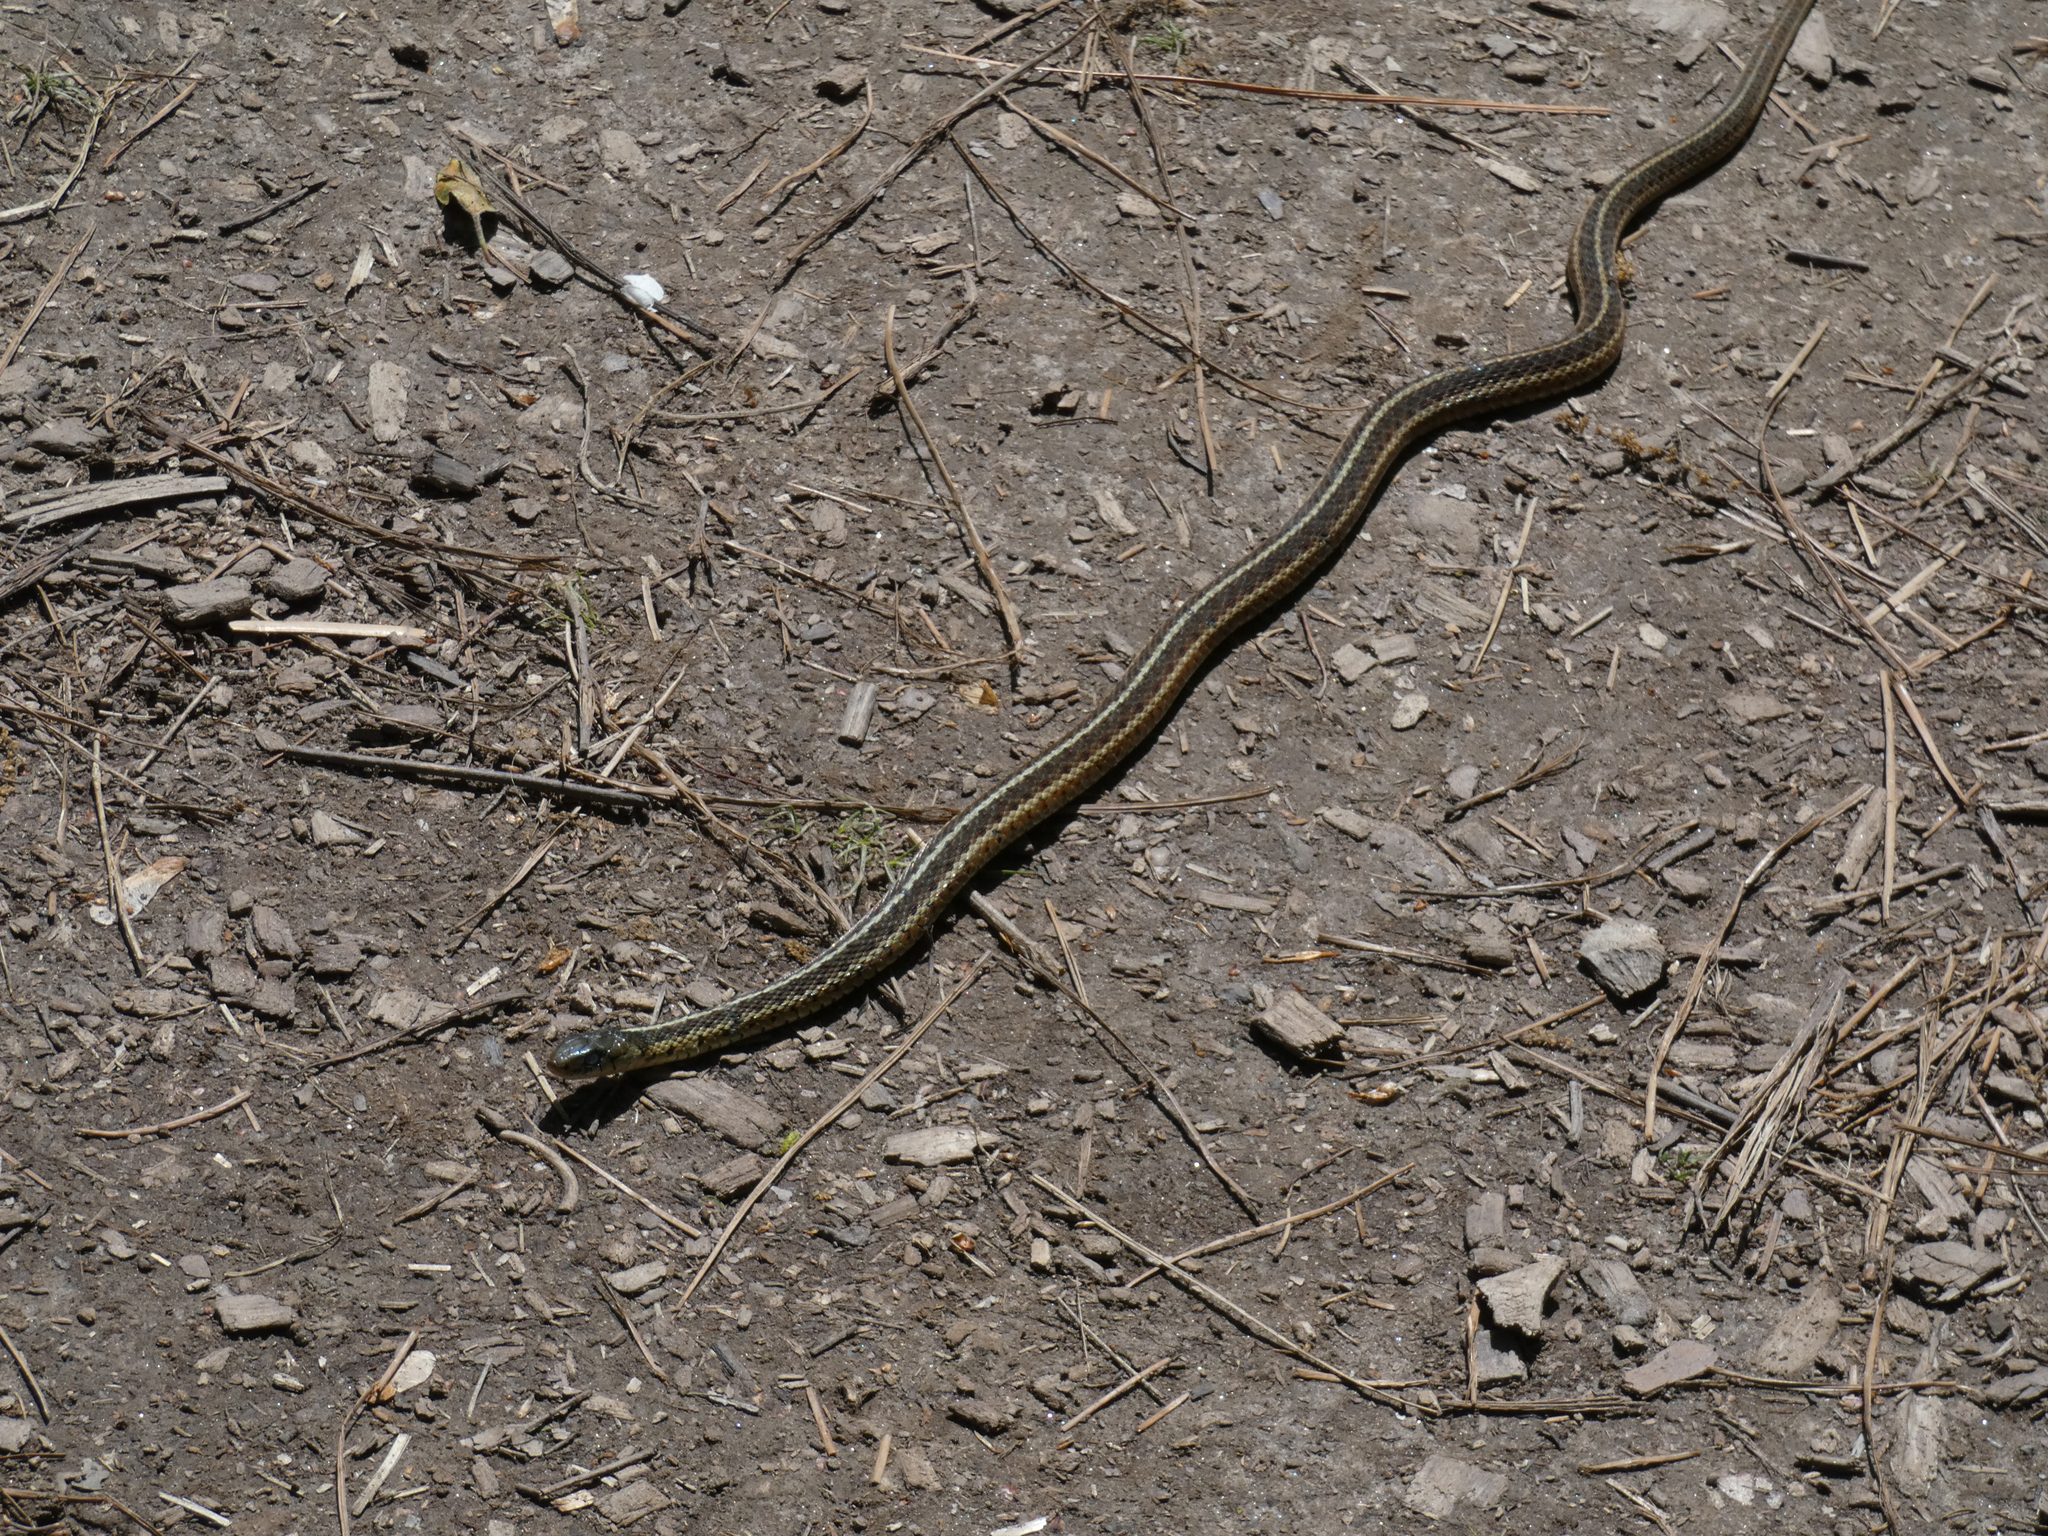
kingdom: Animalia
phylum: Chordata
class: Squamata
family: Colubridae
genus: Thamnophis
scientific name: Thamnophis sirtalis
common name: Common garter snake
